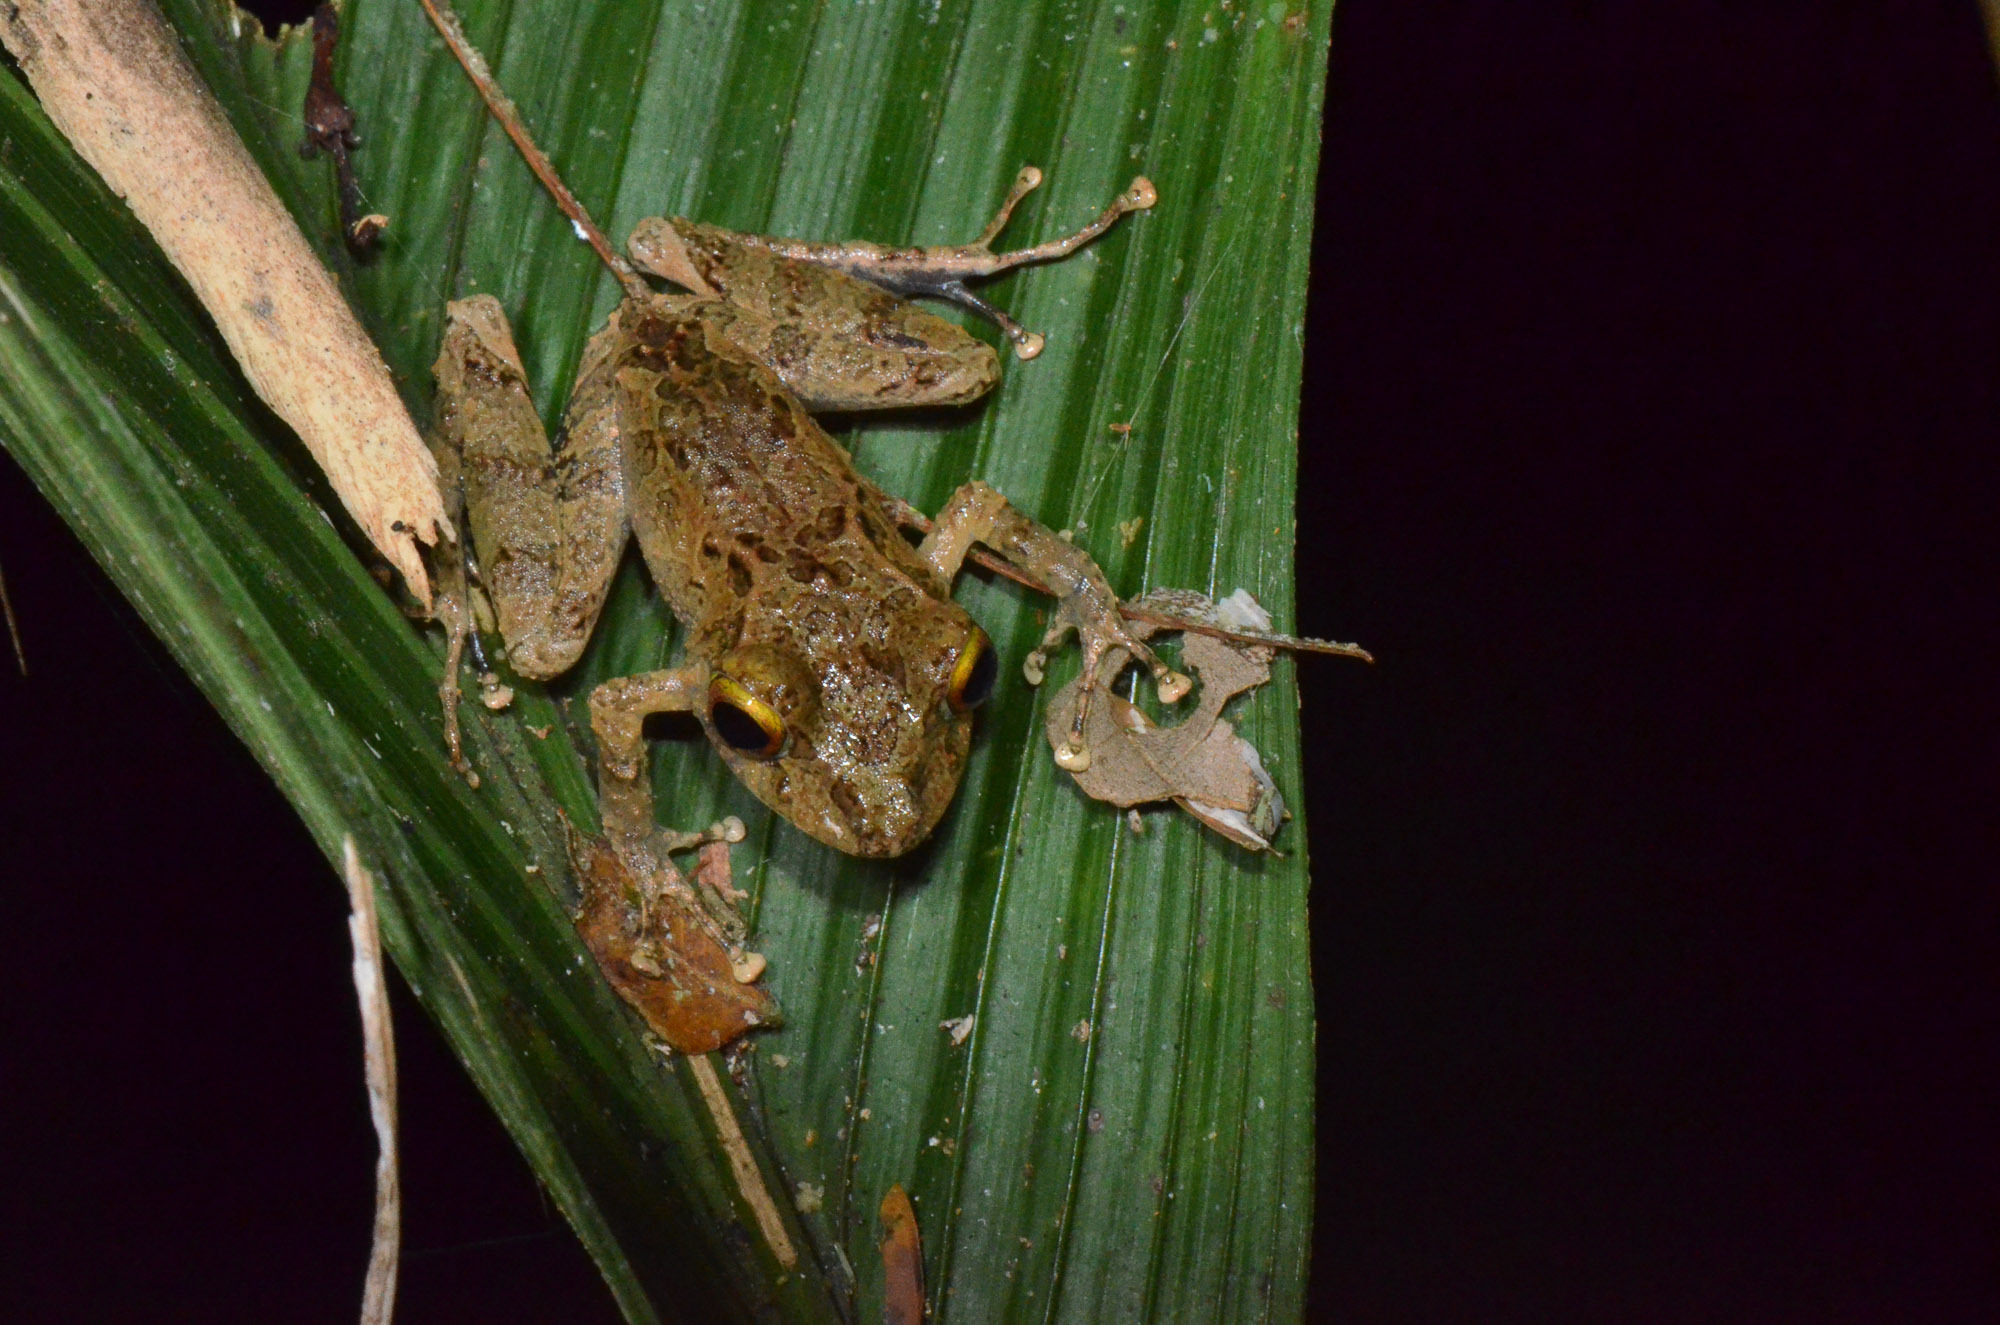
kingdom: Animalia
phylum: Chordata
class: Amphibia
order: Anura
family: Craugastoridae
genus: Pristimantis
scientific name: Pristimantis cerasinus
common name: Limon robber frog
